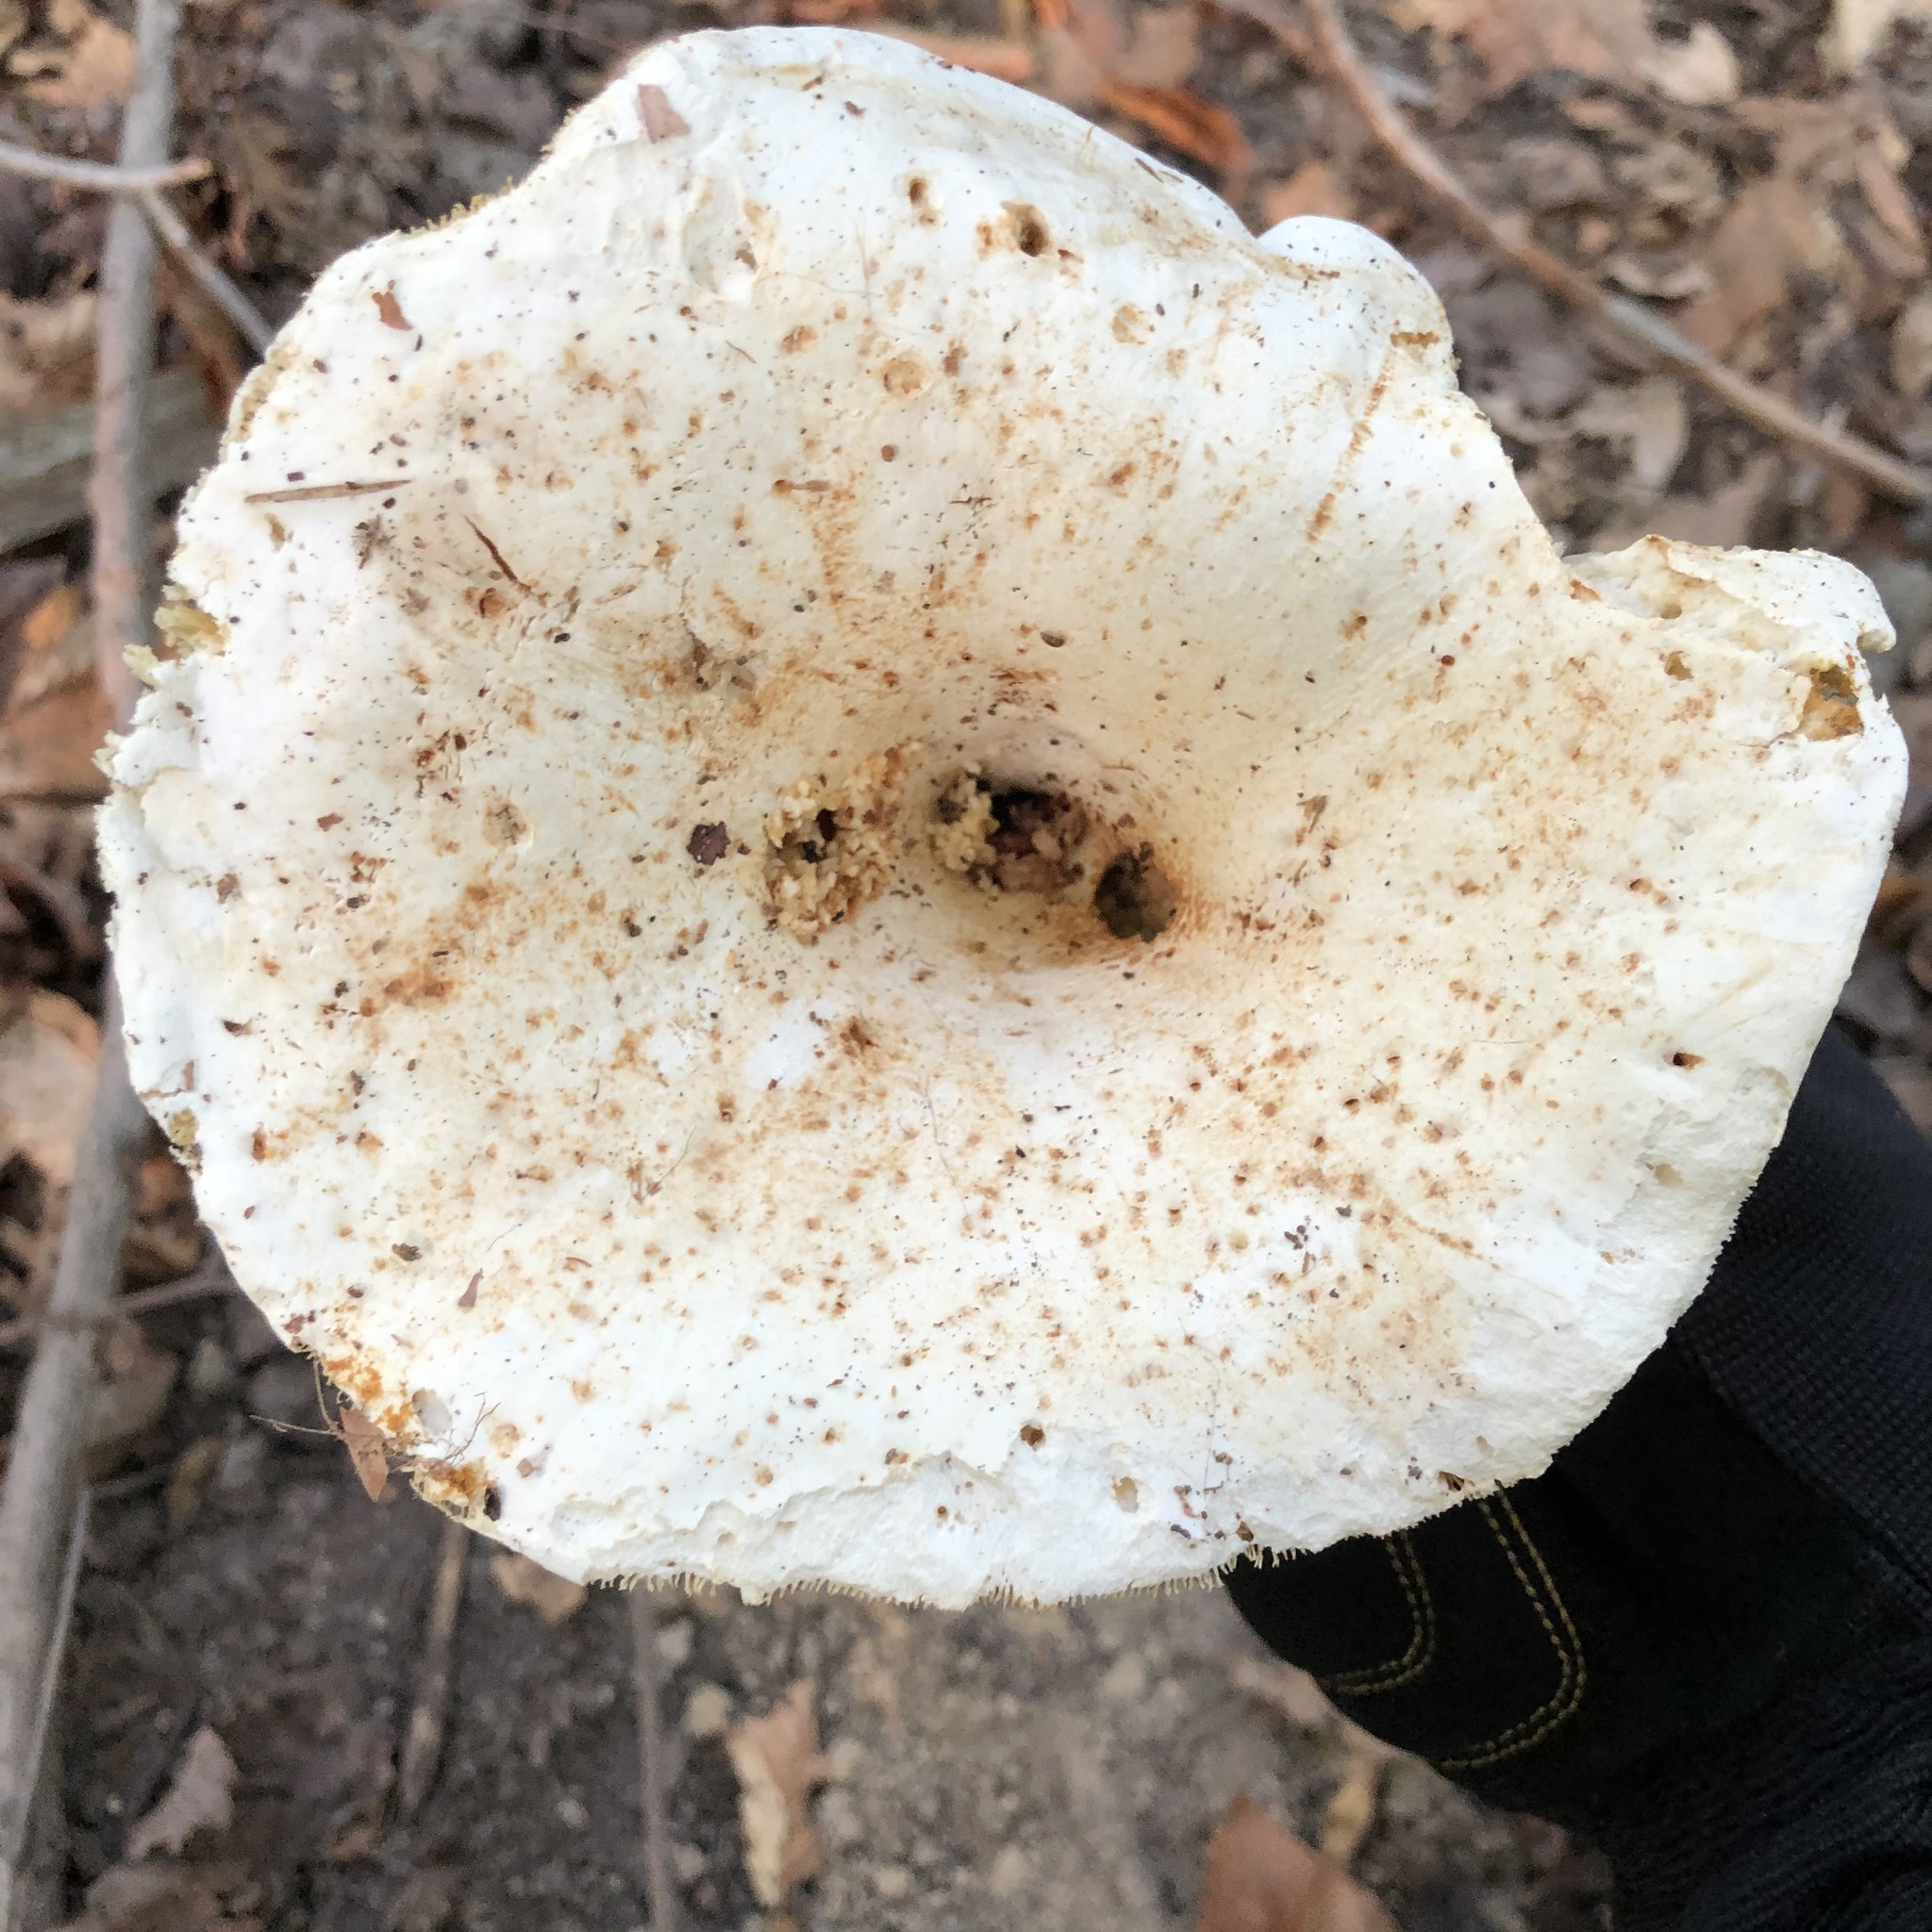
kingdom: Fungi
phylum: Basidiomycota
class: Agaricomycetes
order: Russulales
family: Russulaceae
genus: Russula
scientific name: Russula brevipes
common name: Short-stemmed russula
